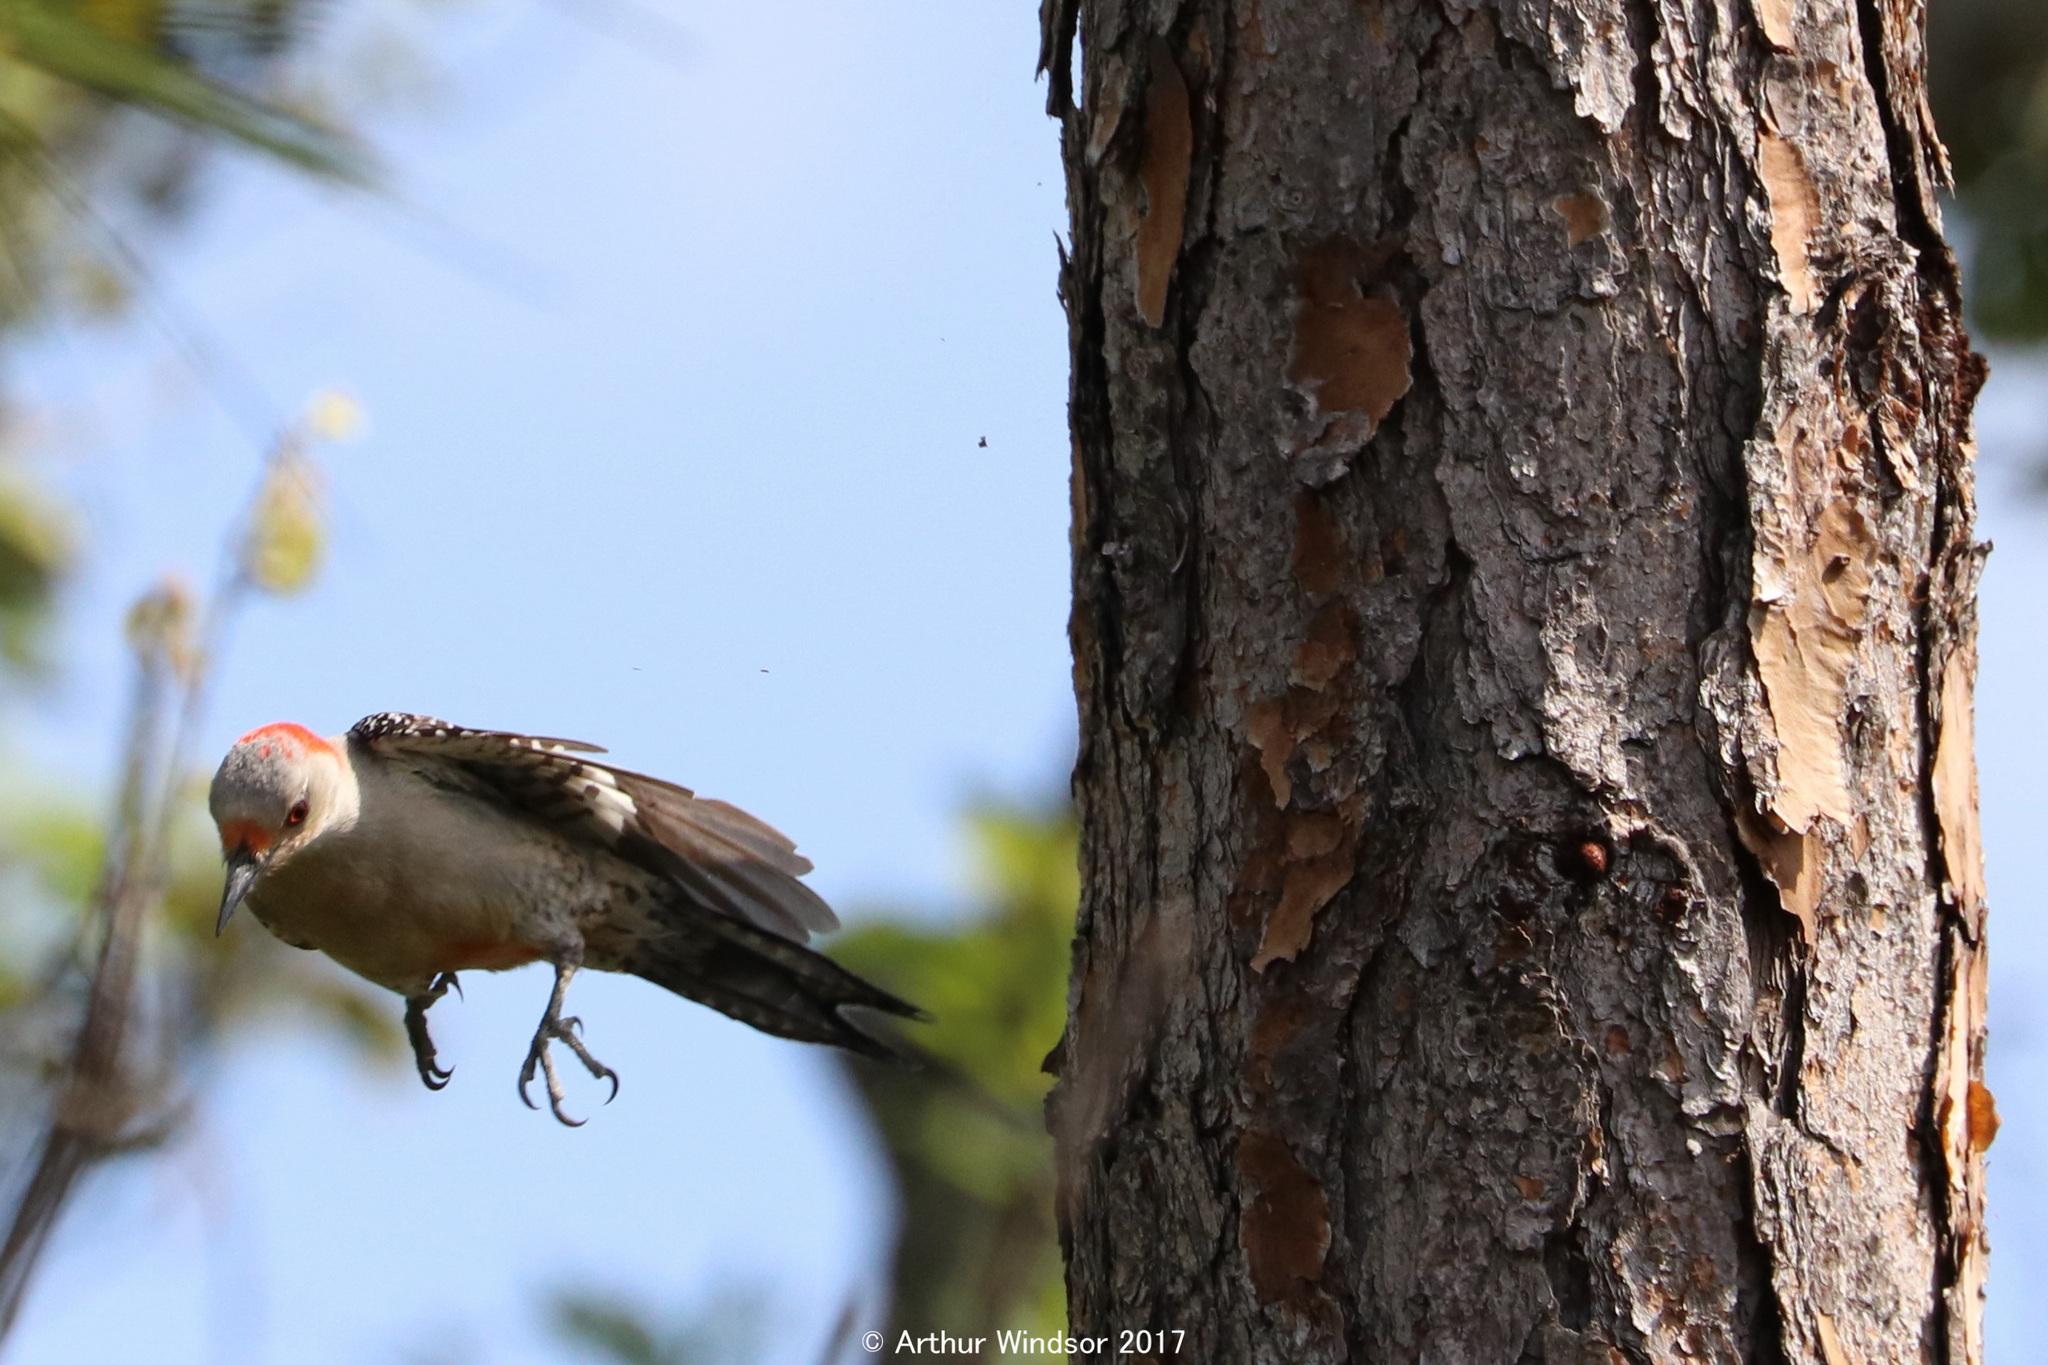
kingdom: Animalia
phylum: Chordata
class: Aves
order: Piciformes
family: Picidae
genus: Melanerpes
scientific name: Melanerpes carolinus
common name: Red-bellied woodpecker
